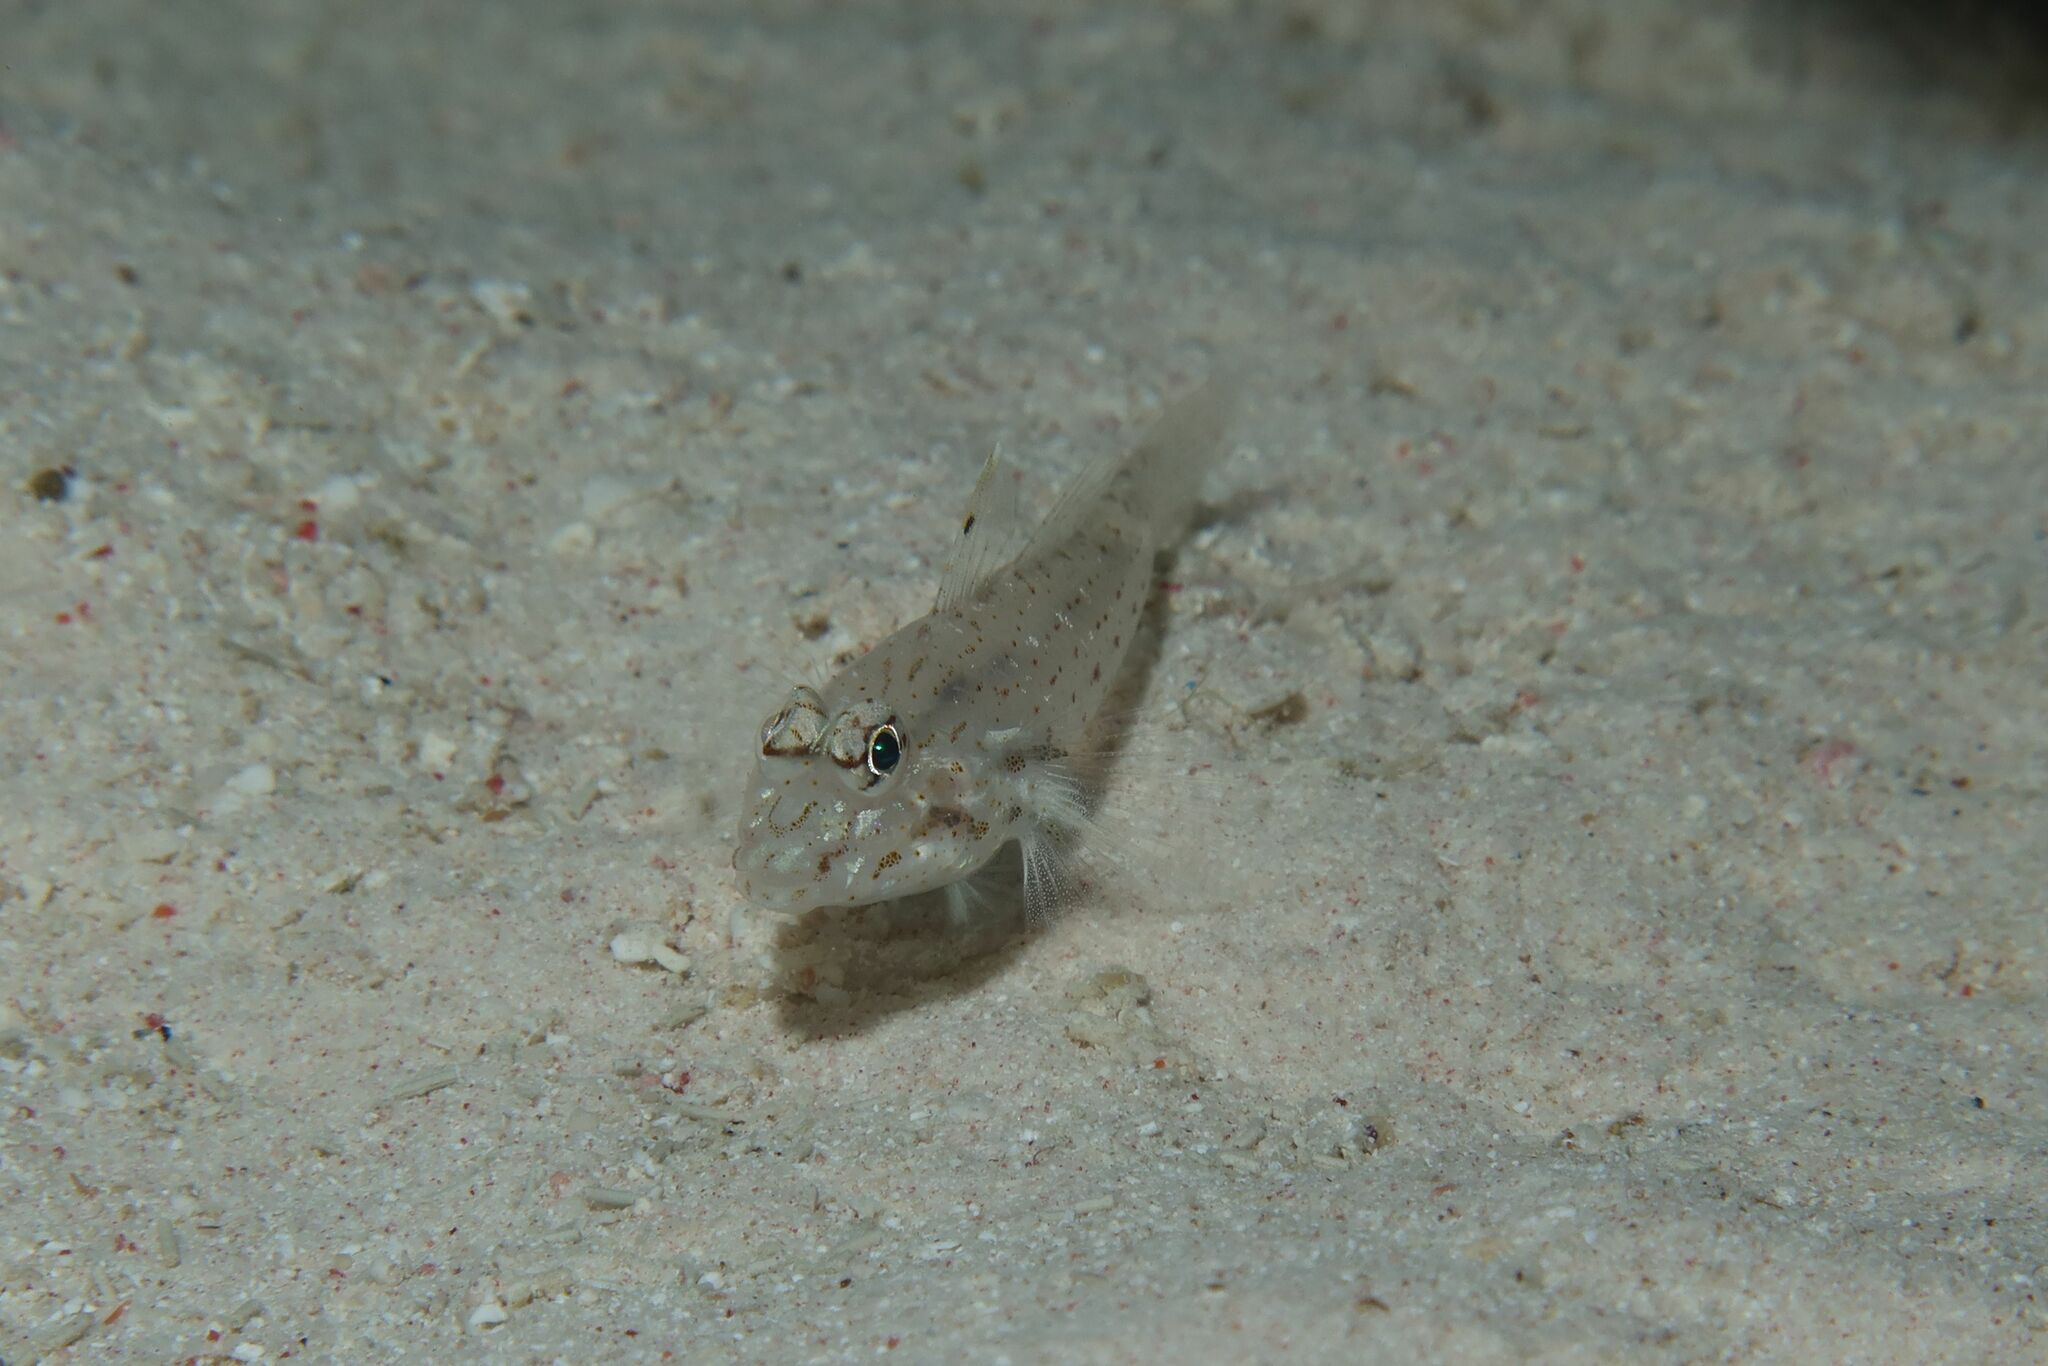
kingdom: Animalia
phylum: Chordata
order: Perciformes
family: Gobiidae
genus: Fusigobius
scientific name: Fusigobius neophytus
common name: Sand goby
